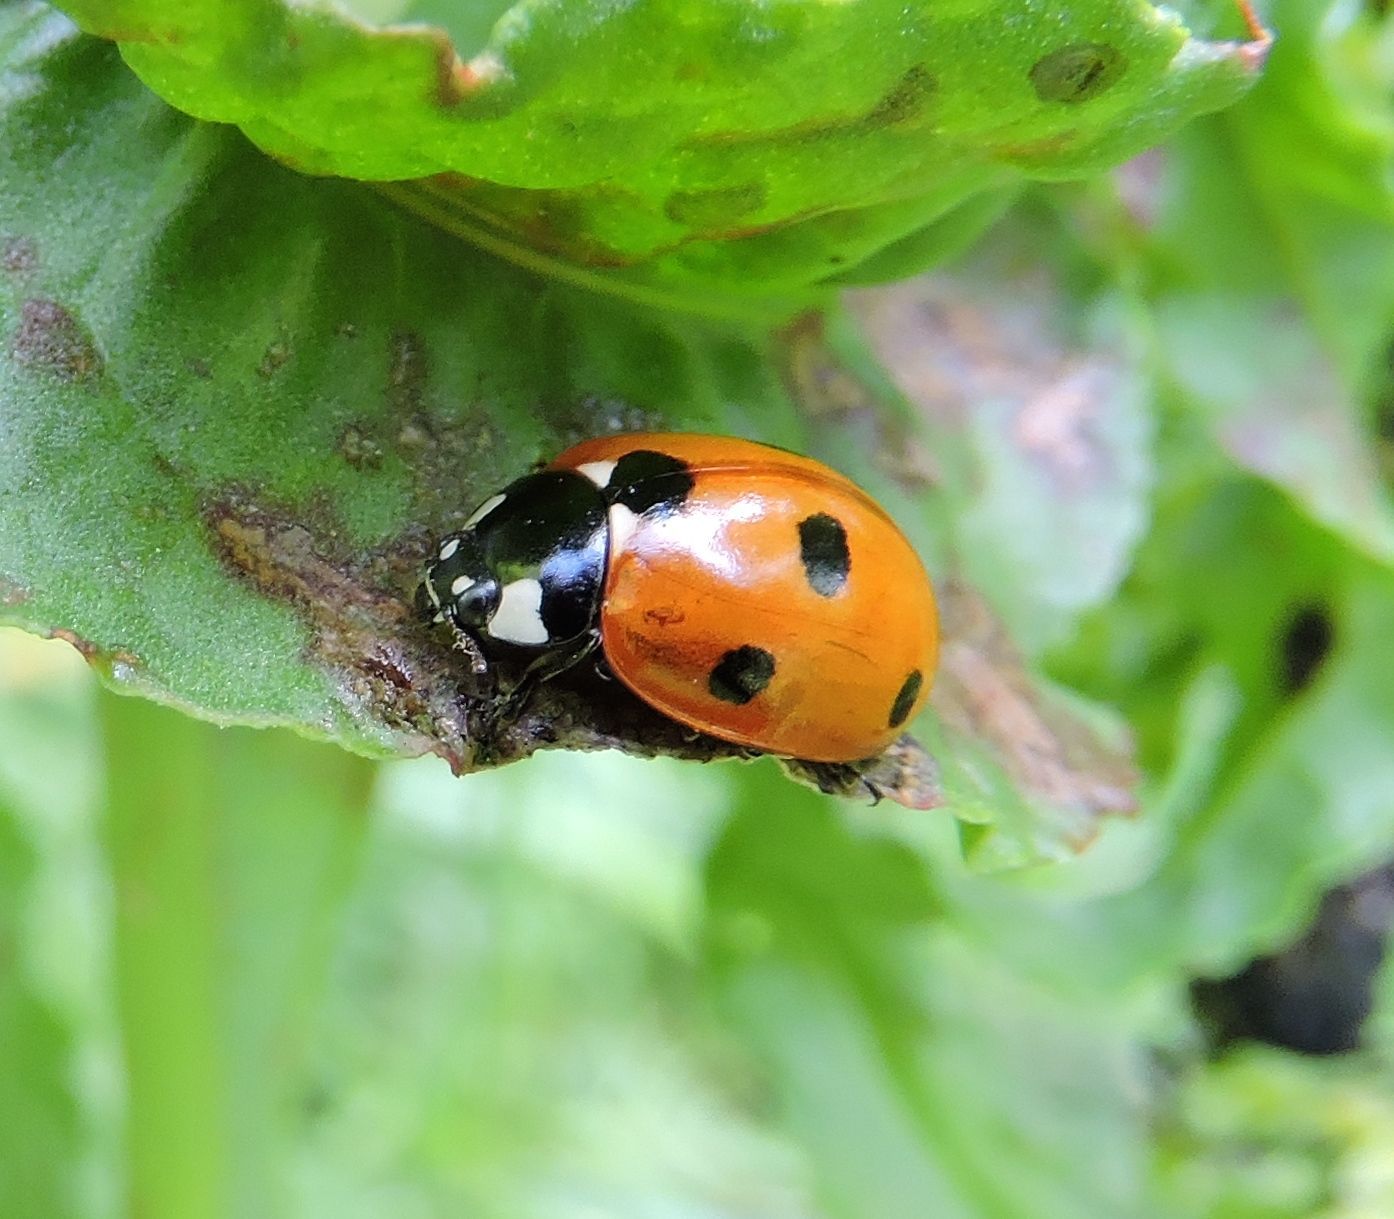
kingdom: Animalia
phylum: Arthropoda
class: Insecta
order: Coleoptera
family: Coccinellidae
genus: Coccinella
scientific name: Coccinella septempunctata
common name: Sevenspotted lady beetle
